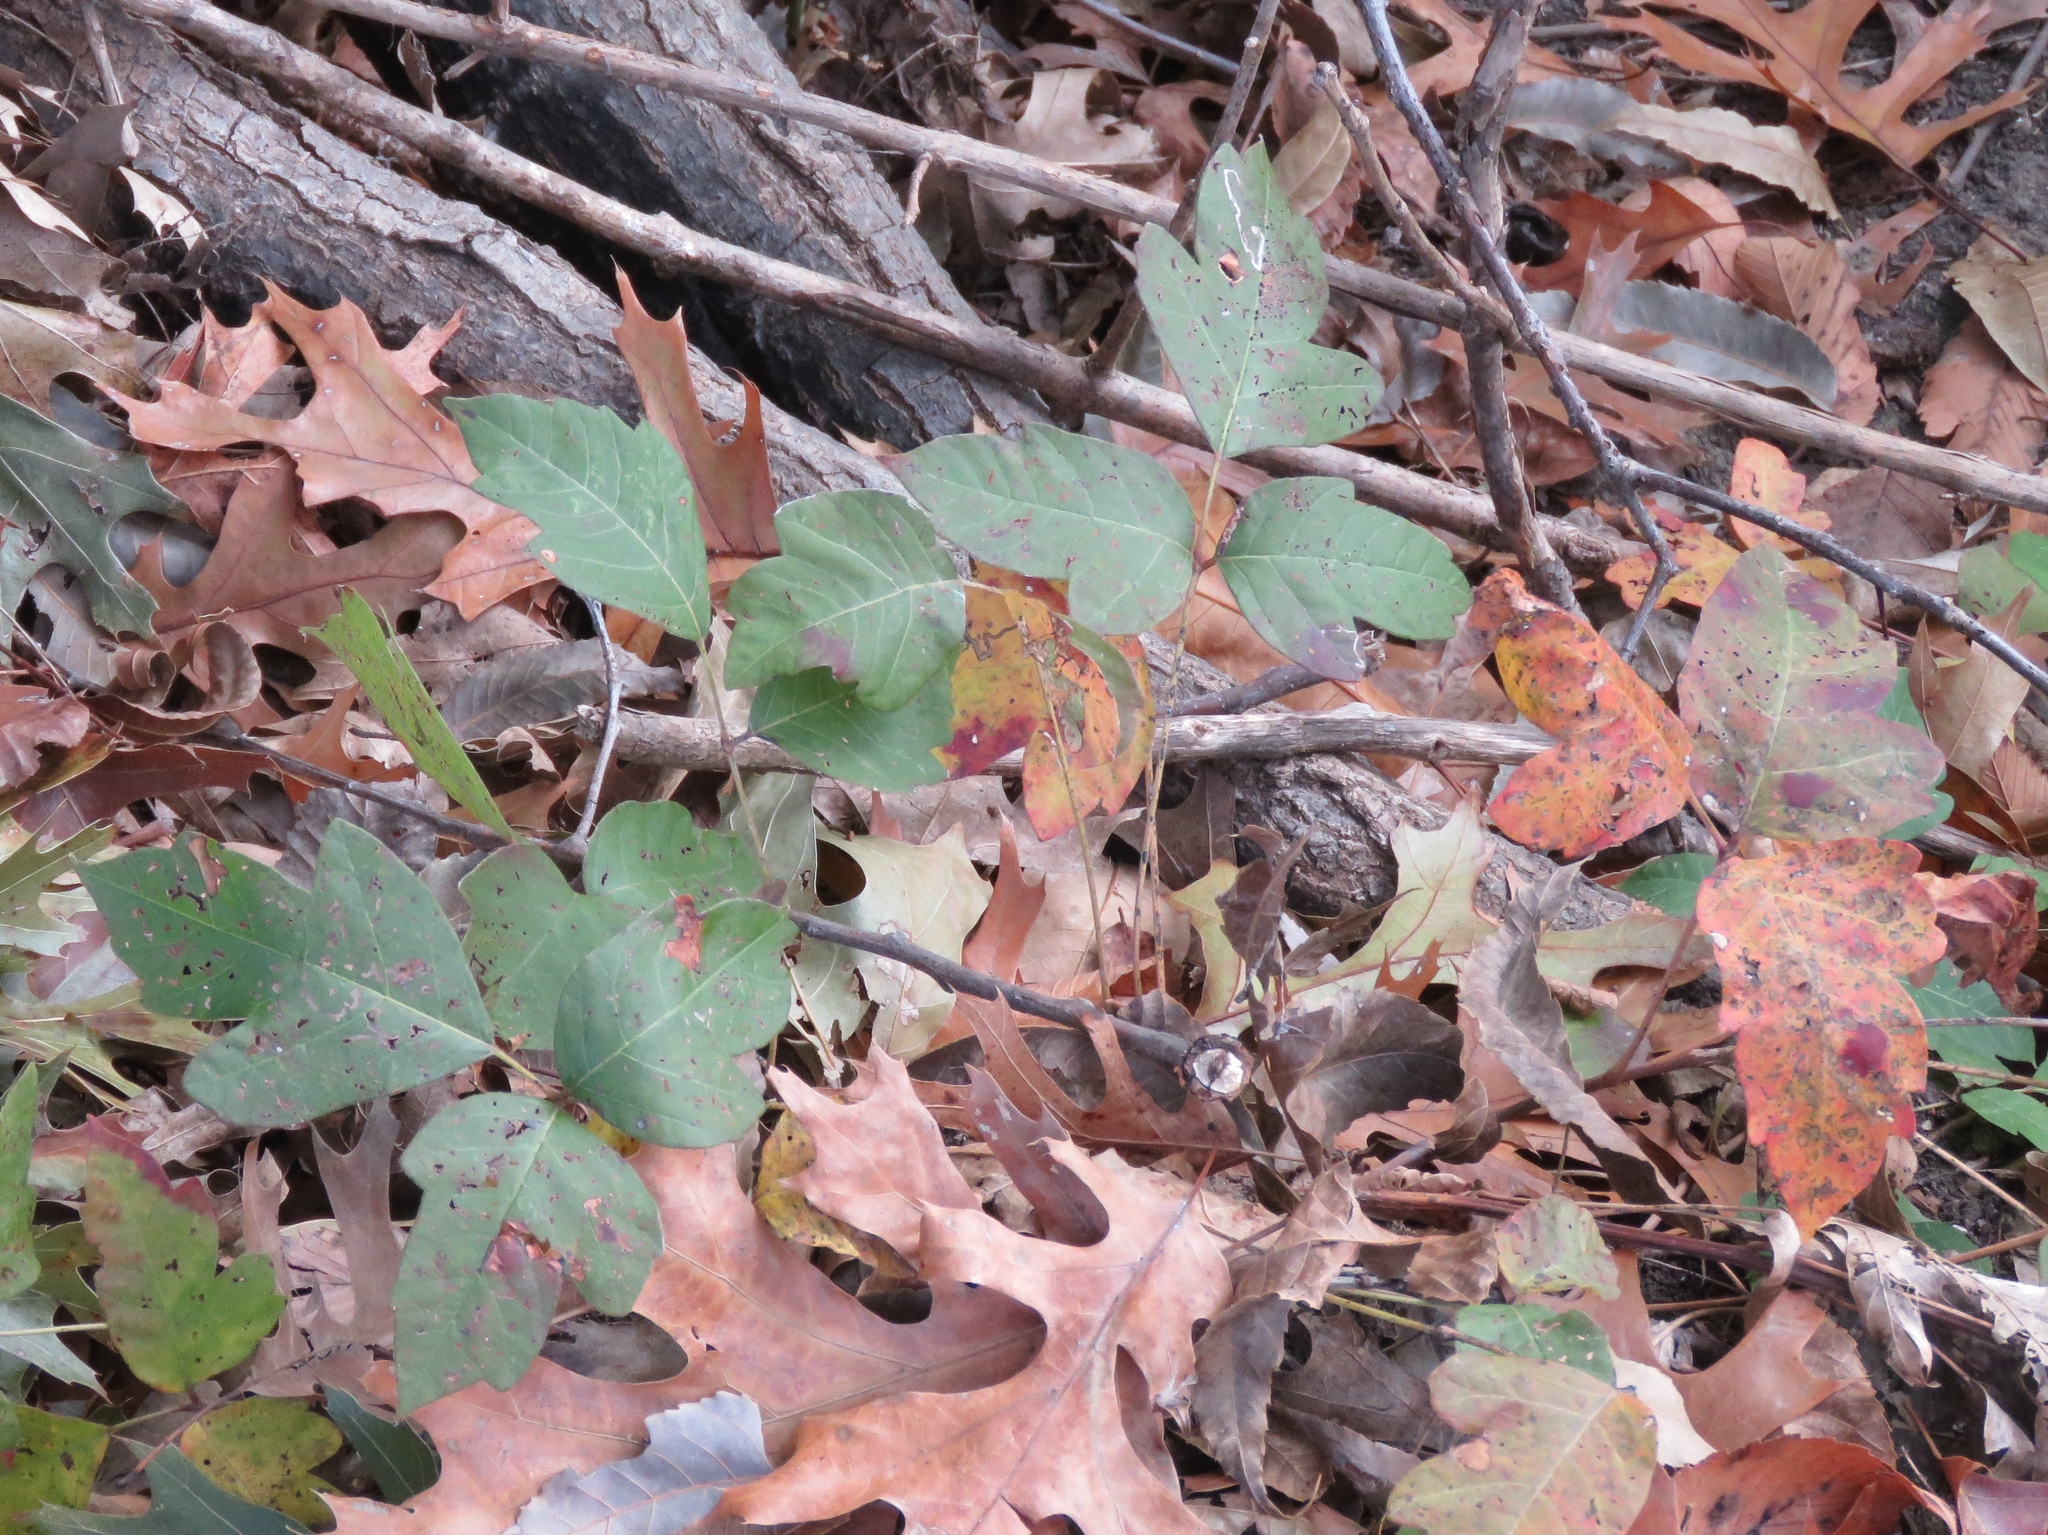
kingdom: Plantae
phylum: Tracheophyta
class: Magnoliopsida
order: Sapindales
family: Anacardiaceae
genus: Toxicodendron
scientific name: Toxicodendron radicans
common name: Poison ivy
